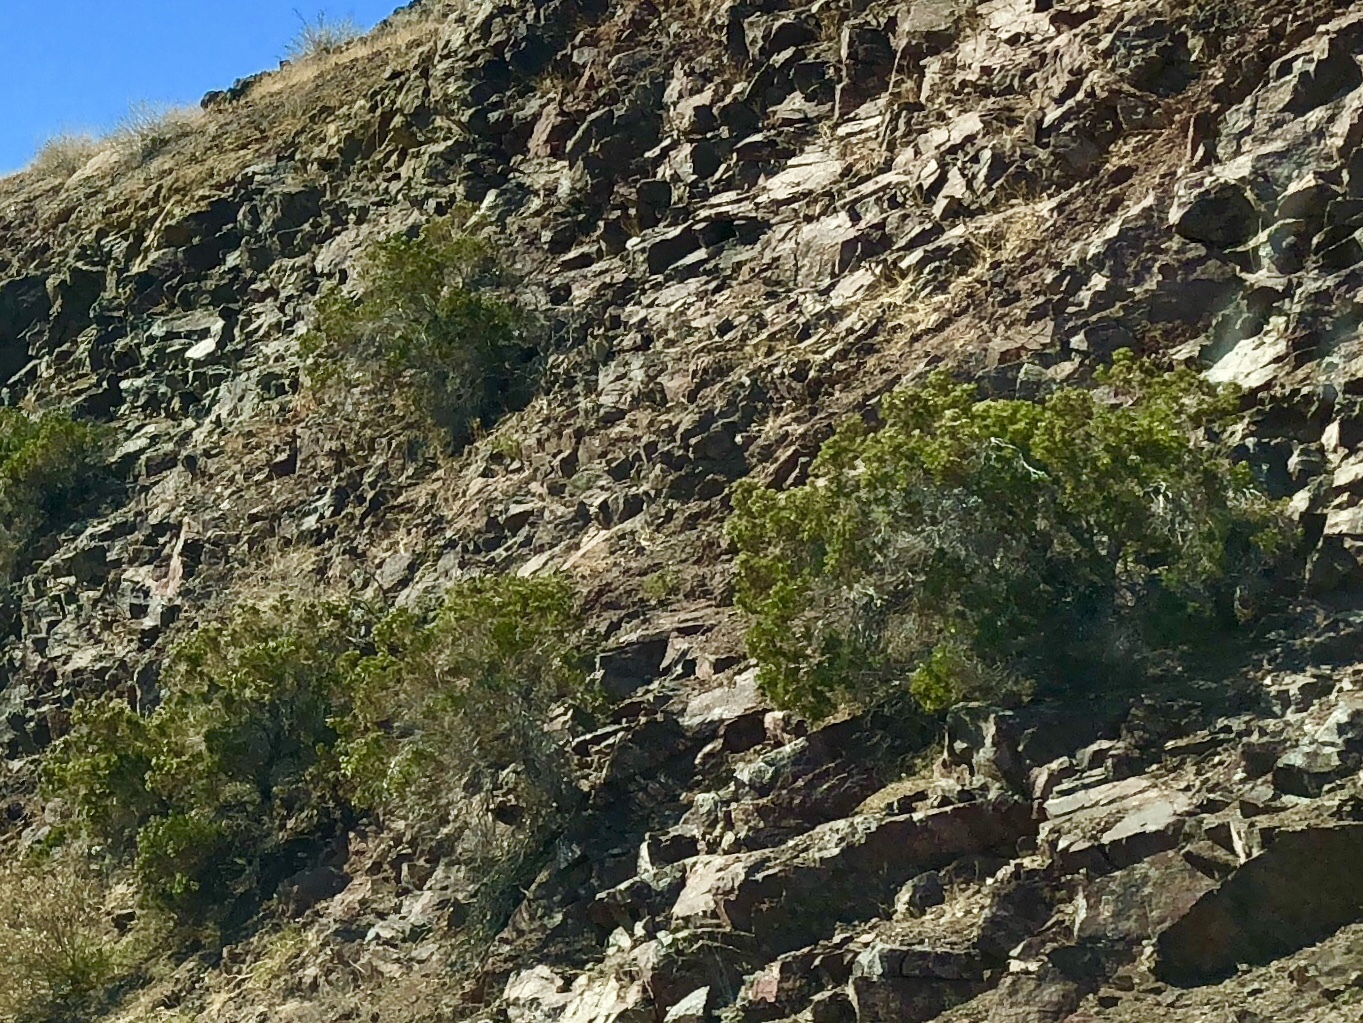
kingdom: Plantae
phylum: Tracheophyta
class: Magnoliopsida
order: Zygophyllales
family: Zygophyllaceae
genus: Larrea
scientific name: Larrea tridentata
